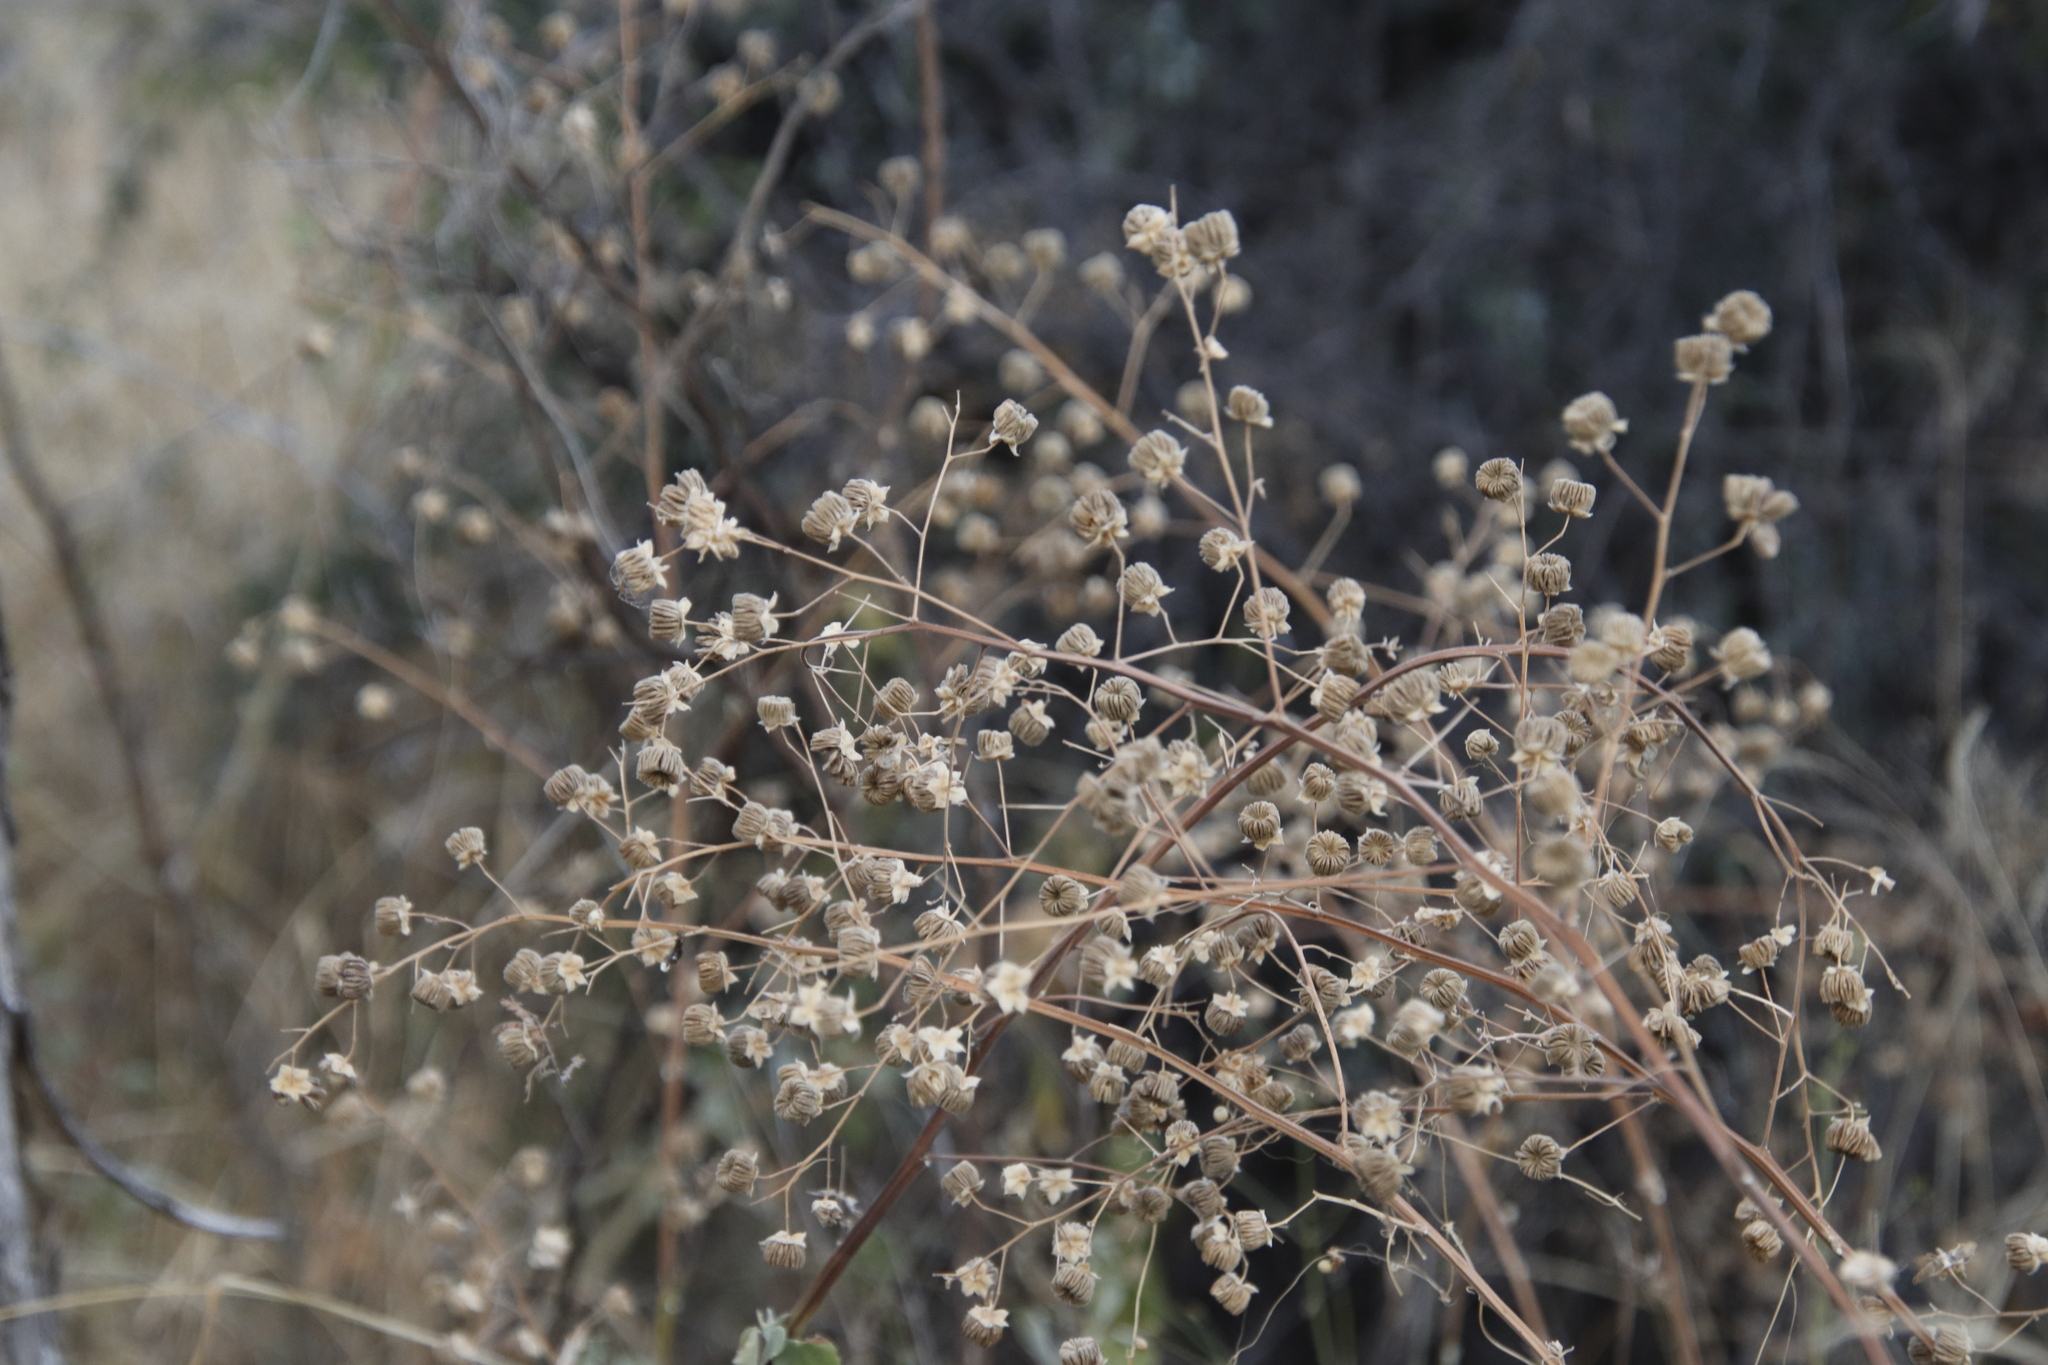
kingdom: Plantae
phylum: Tracheophyta
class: Magnoliopsida
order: Malvales
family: Malvaceae
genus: Abutilon
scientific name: Abutilon angulatum
